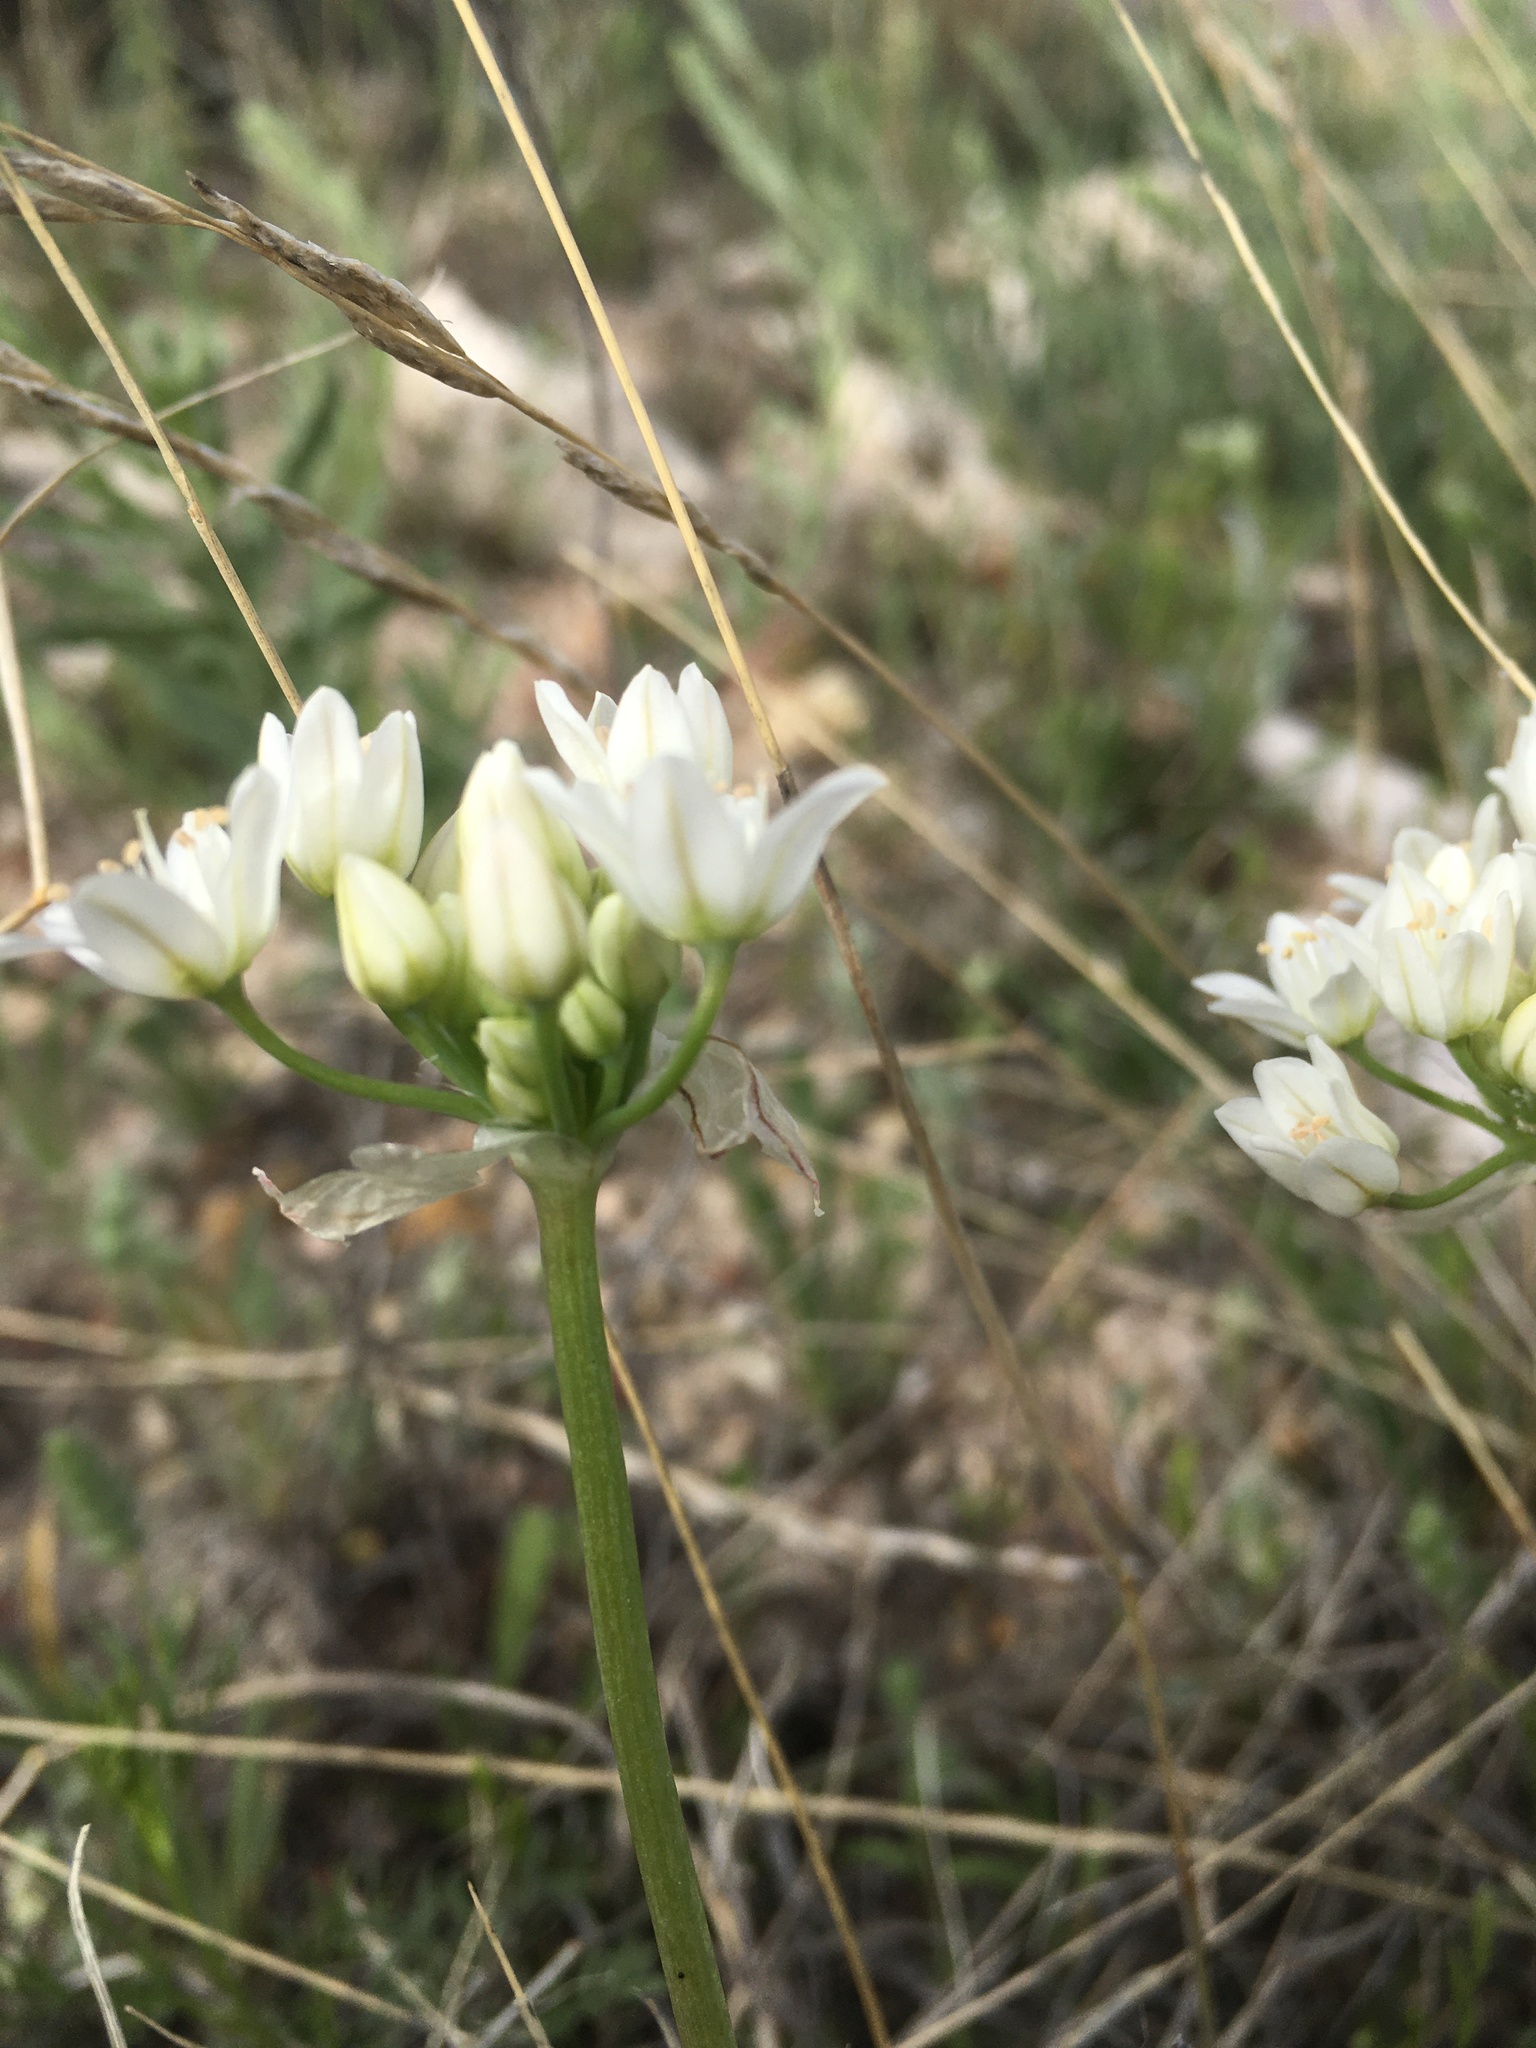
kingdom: Plantae
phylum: Tracheophyta
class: Liliopsida
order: Asparagales
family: Amaryllidaceae
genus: Allium
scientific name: Allium drummondii
